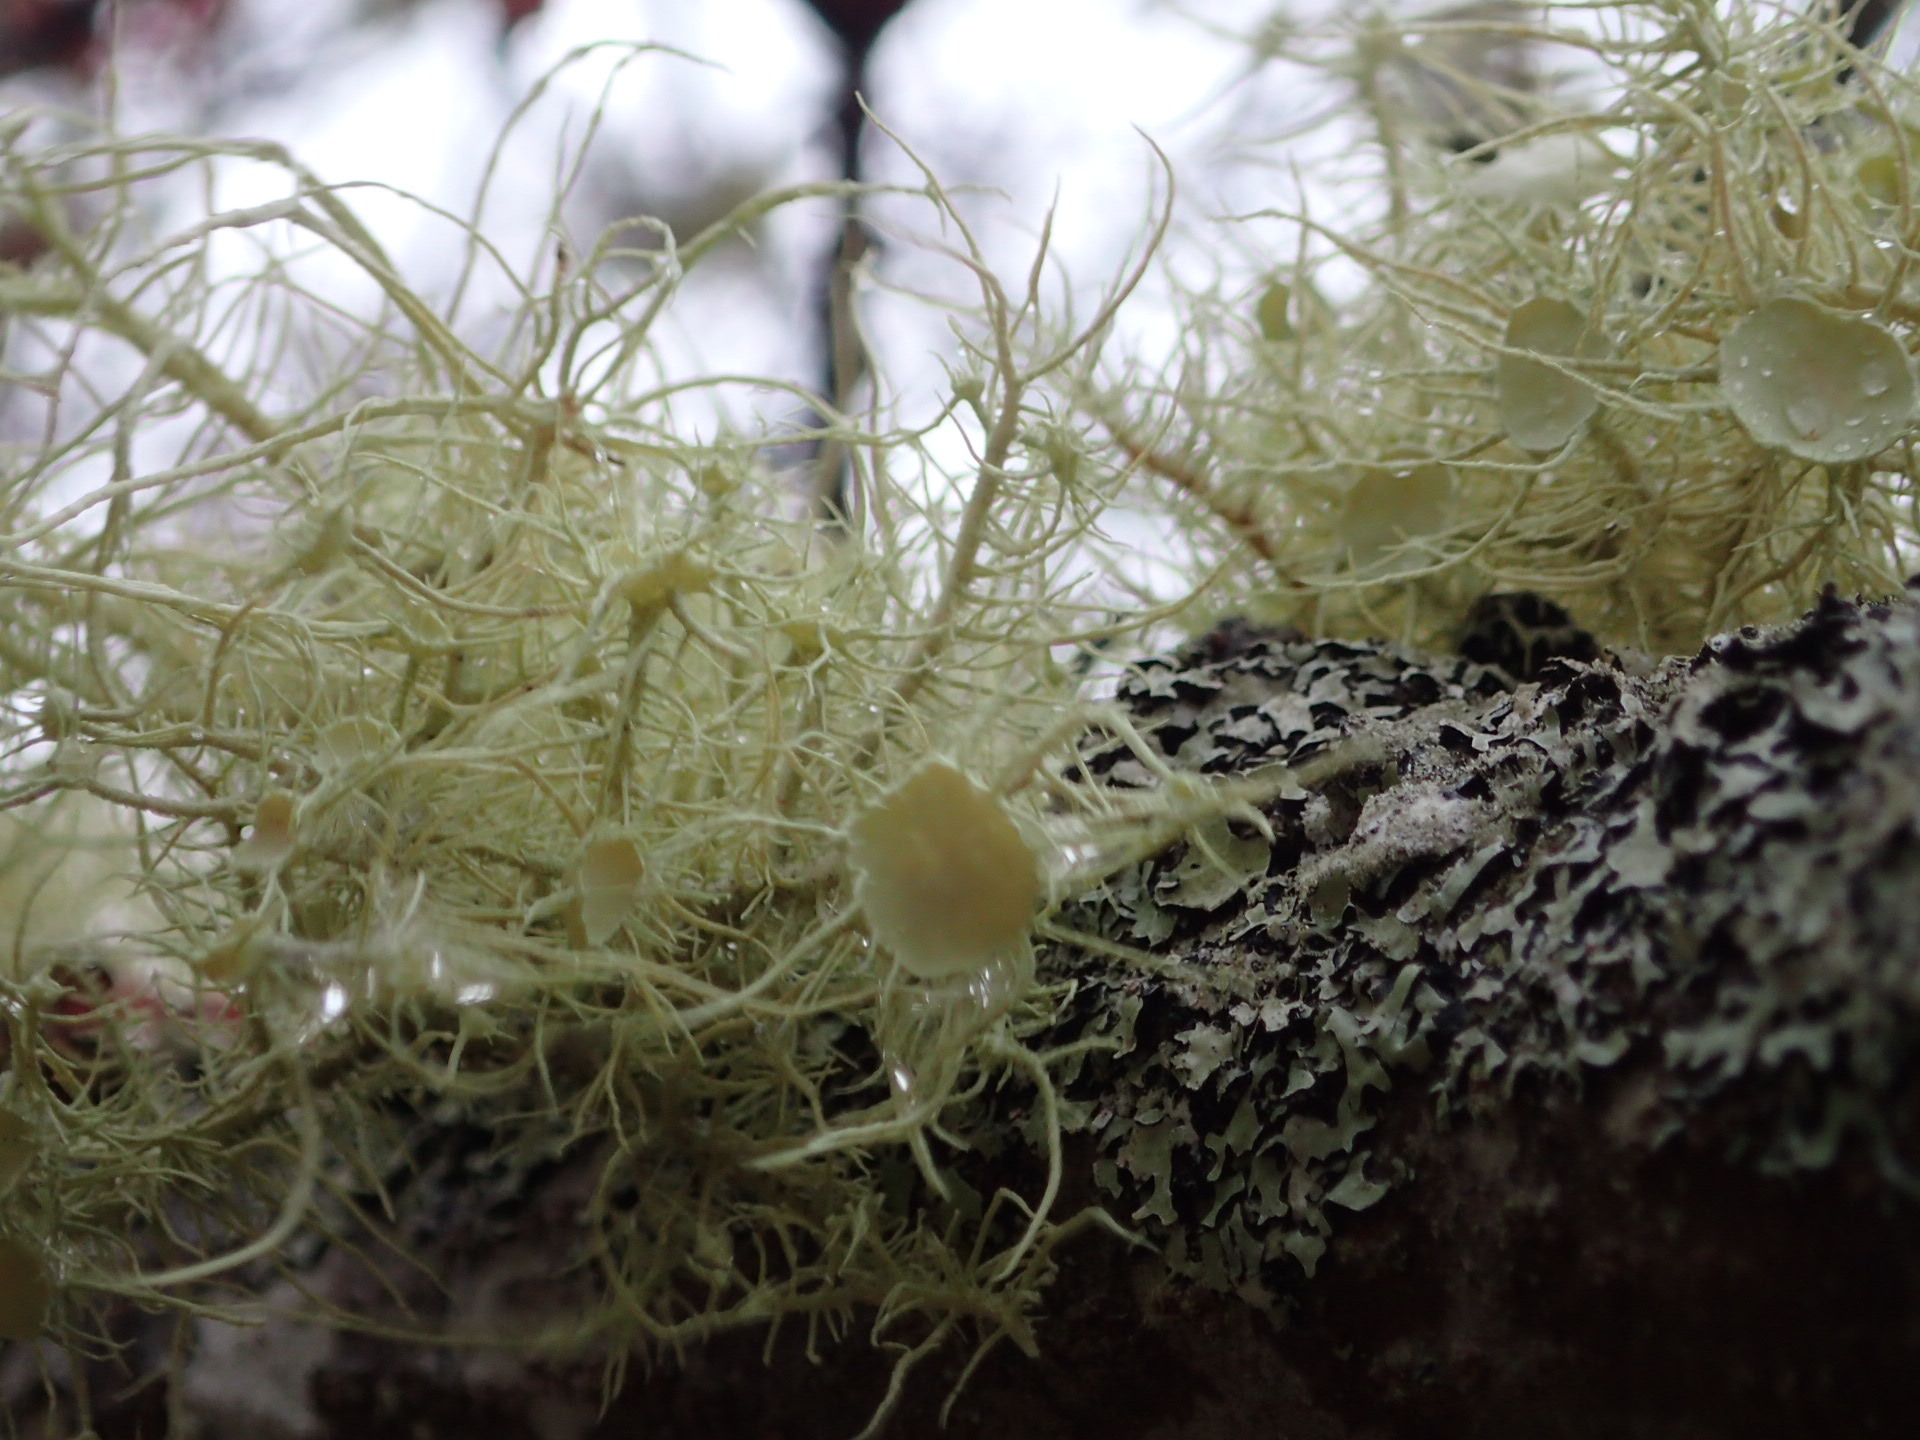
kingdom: Fungi
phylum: Ascomycota
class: Lecanoromycetes
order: Lecanorales
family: Parmeliaceae
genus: Usnea
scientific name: Usnea strigosa
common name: Bushy beard lichen
